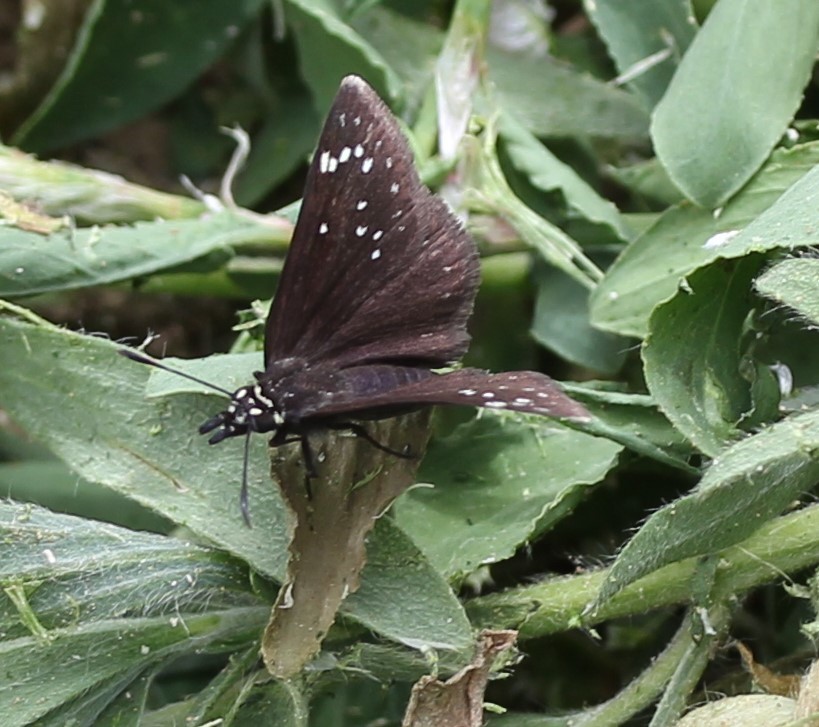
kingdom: Animalia
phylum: Arthropoda
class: Insecta
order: Lepidoptera
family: Hesperiidae
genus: Pholisora
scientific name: Pholisora catullus
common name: Common sootywing
